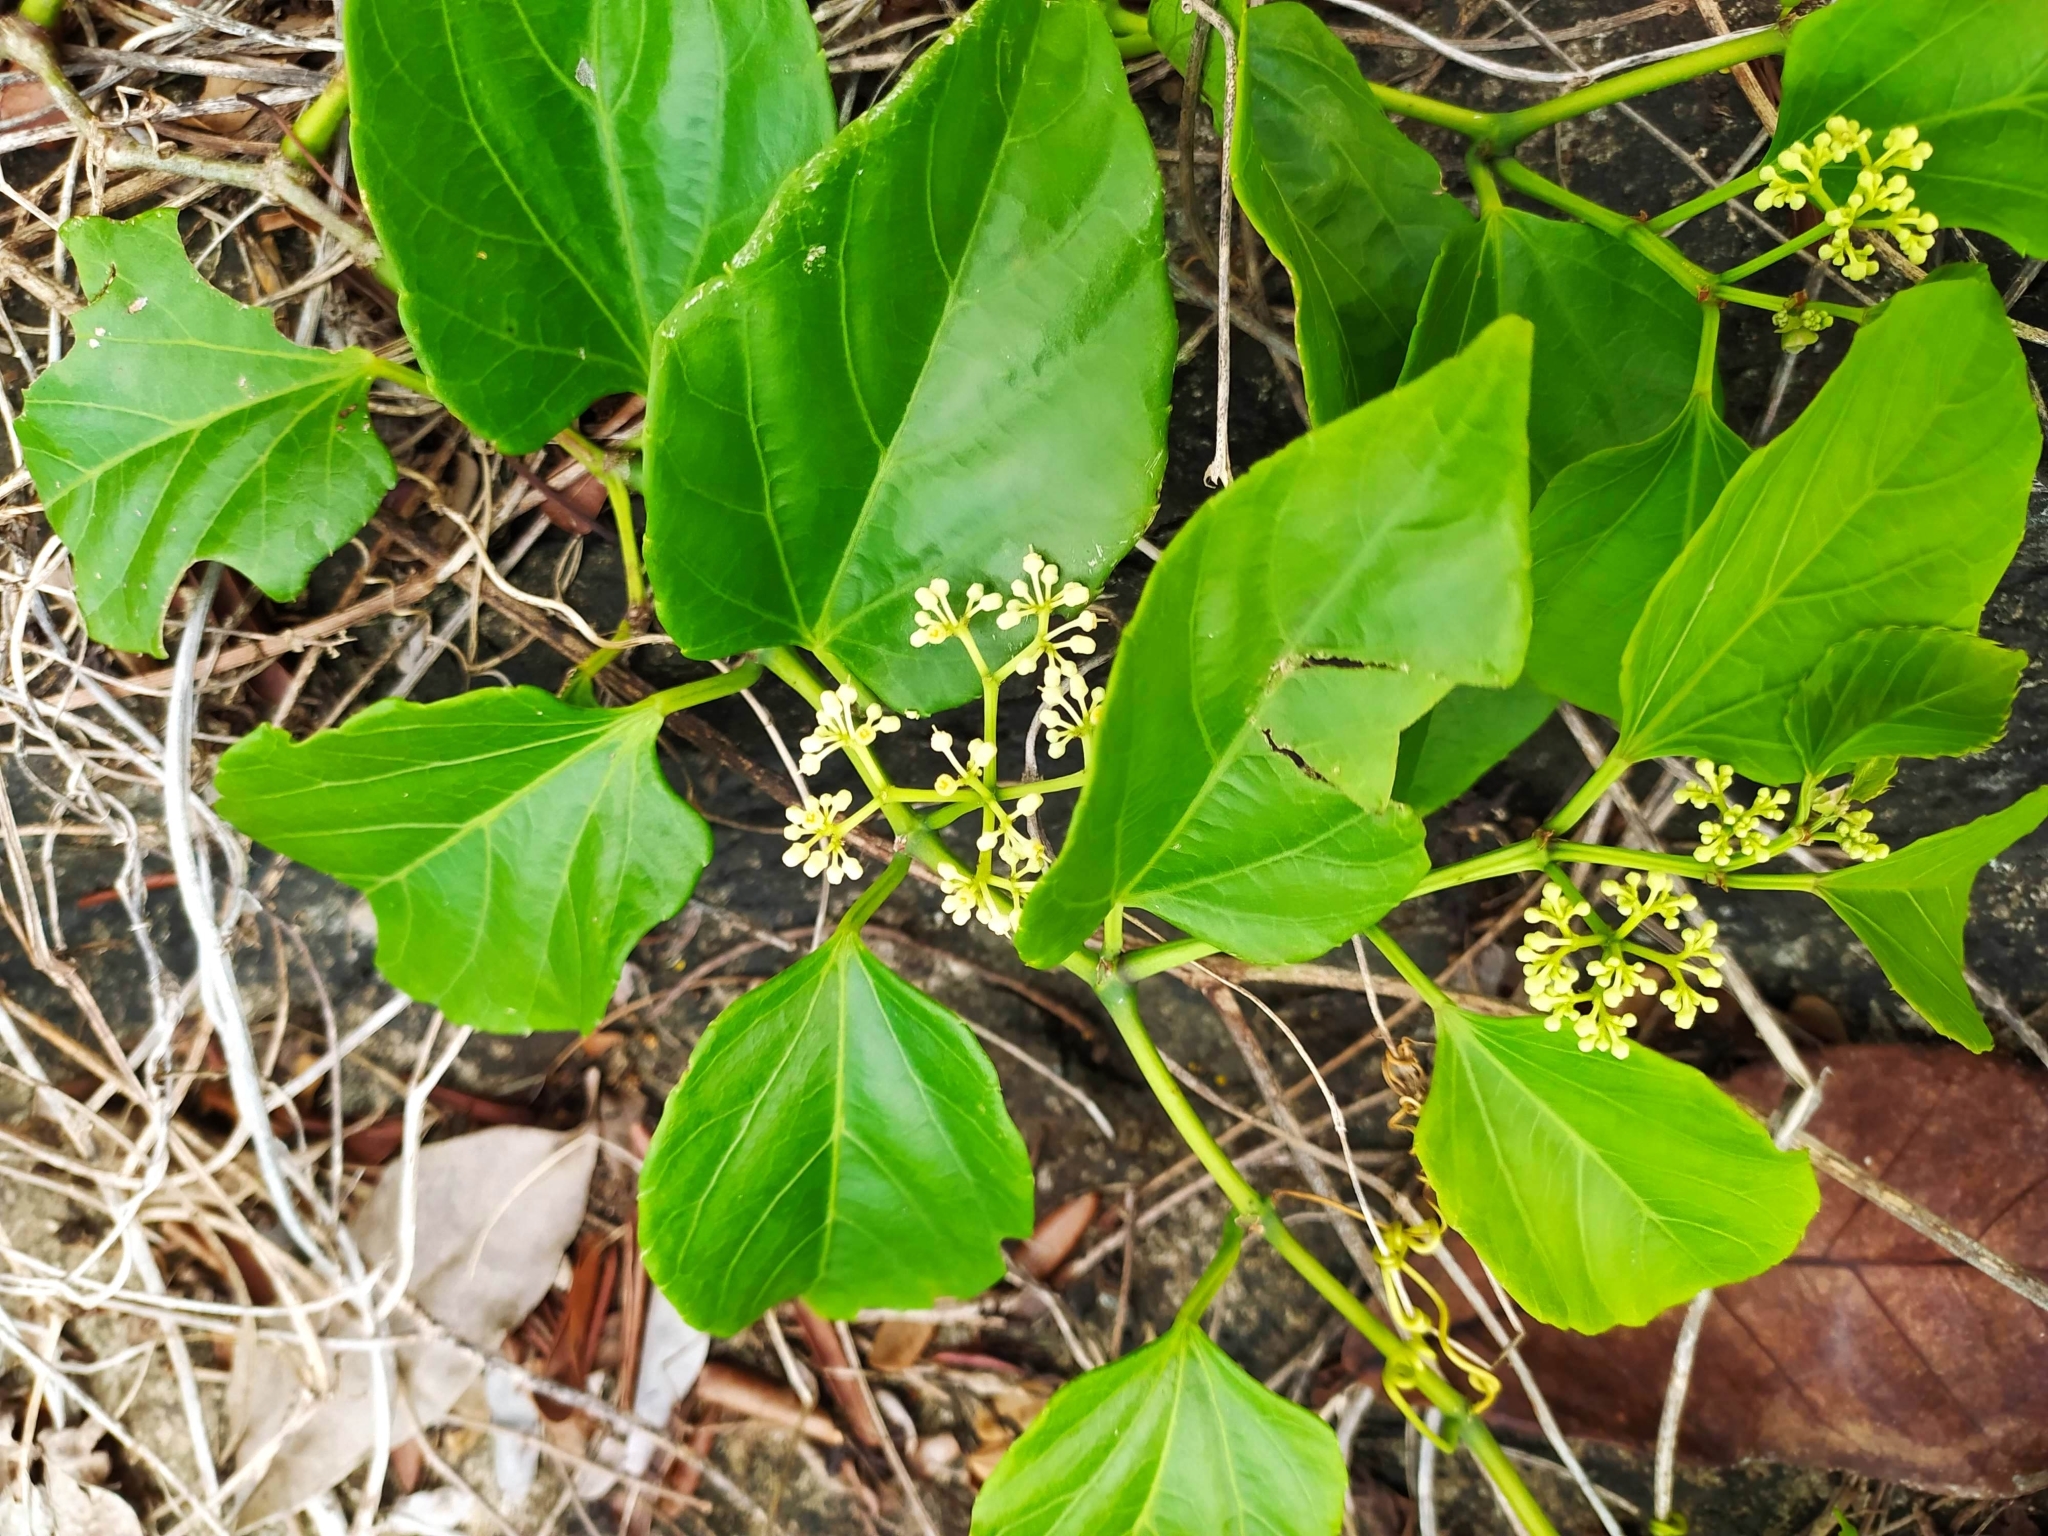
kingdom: Plantae
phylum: Tracheophyta
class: Magnoliopsida
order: Vitales
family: Vitaceae
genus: Cissus
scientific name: Cissus verticillata
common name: Princess vine
